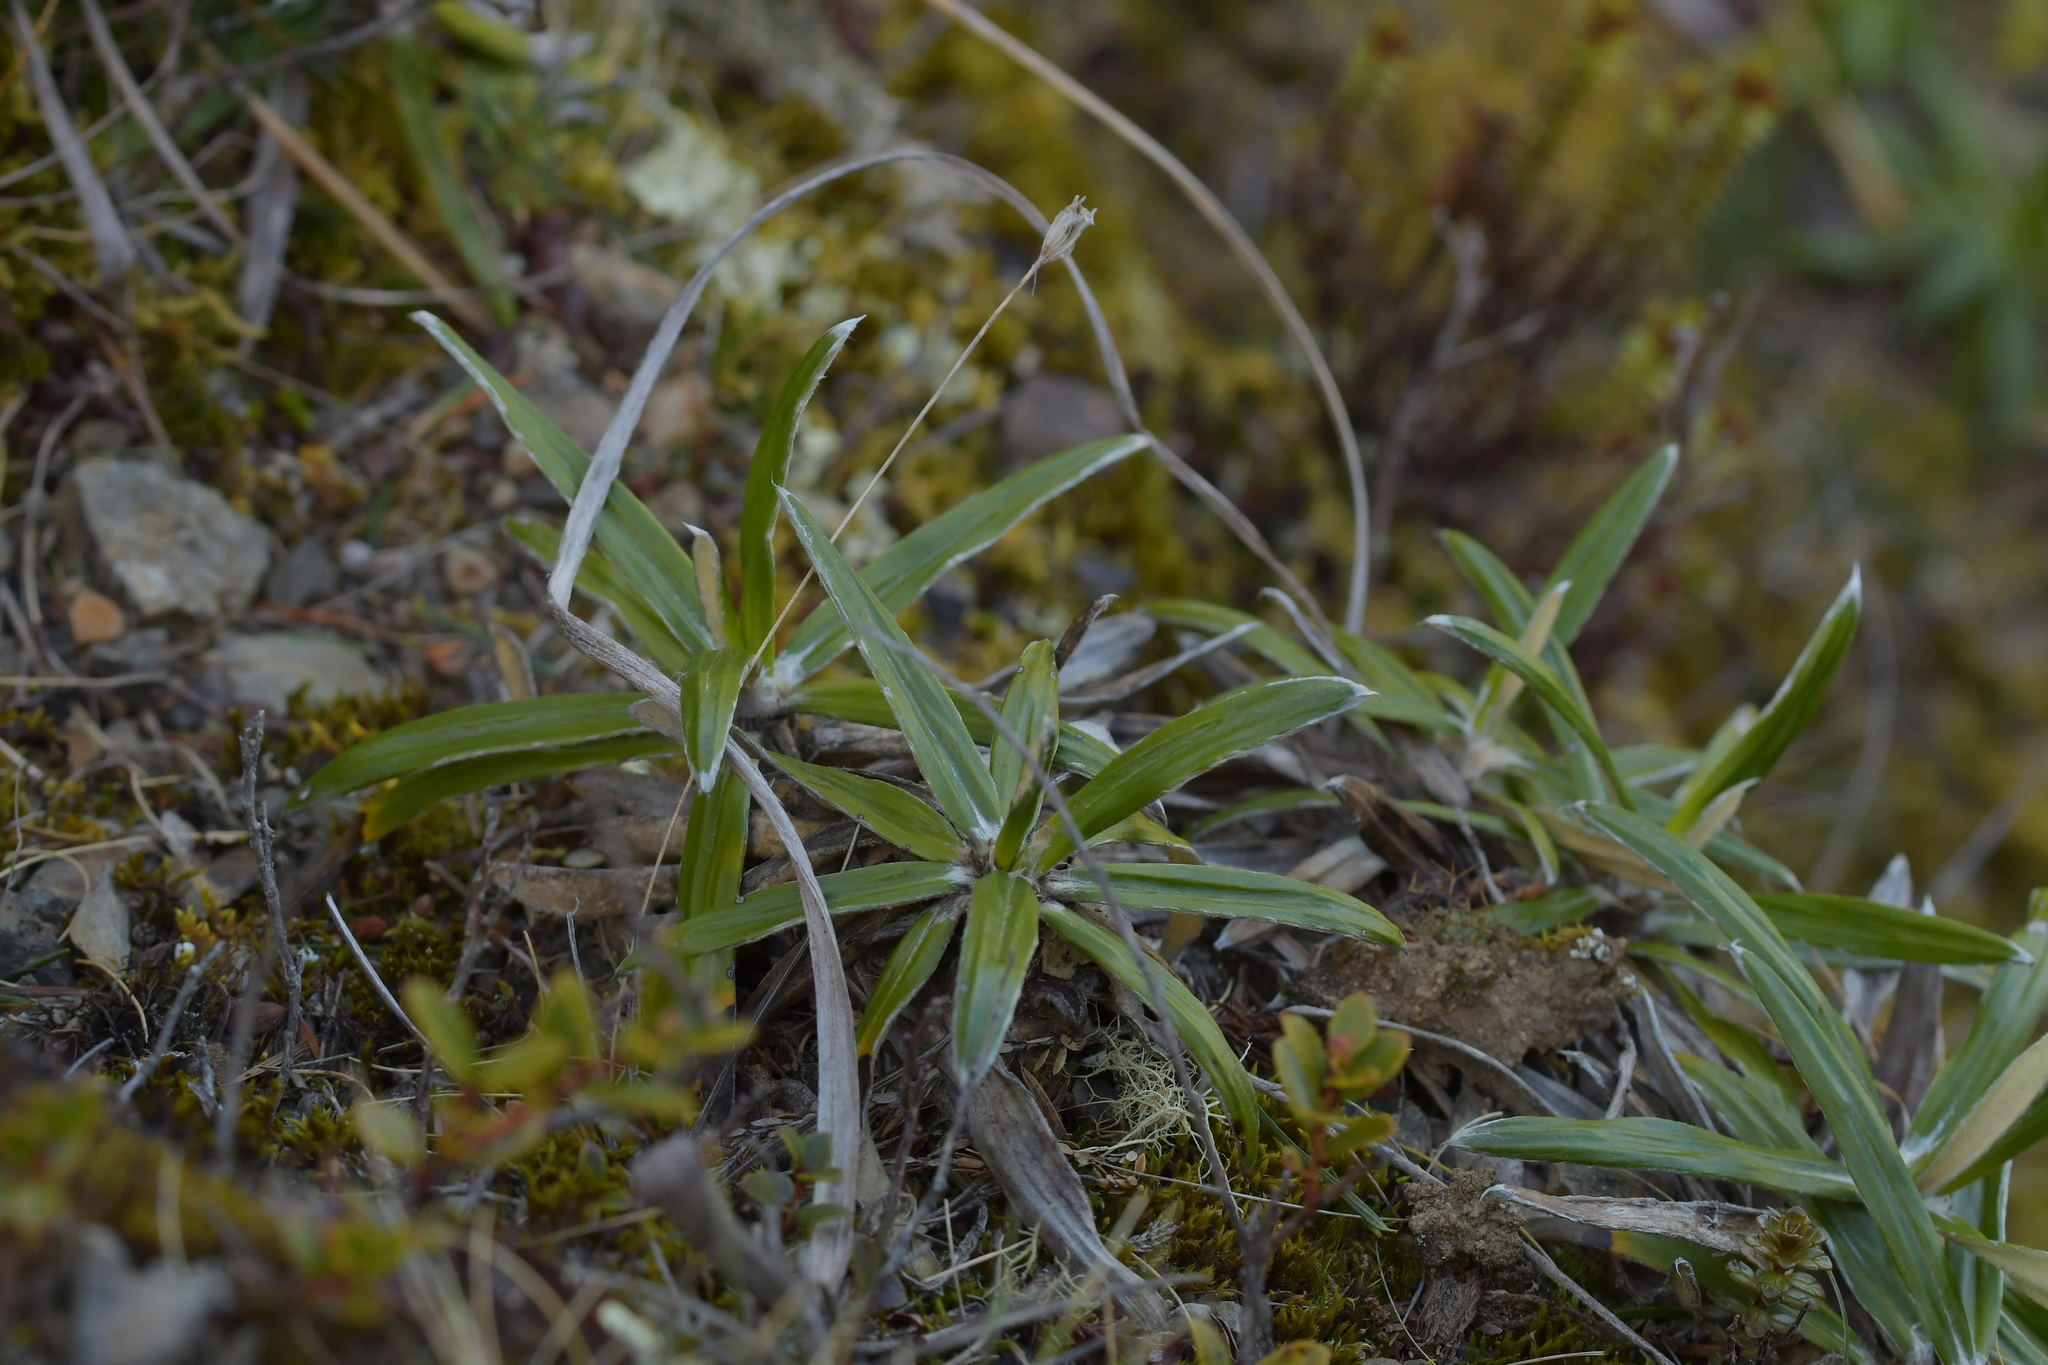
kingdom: Plantae
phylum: Tracheophyta
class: Magnoliopsida
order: Asterales
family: Asteraceae
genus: Celmisia
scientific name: Celmisia spectabilis
